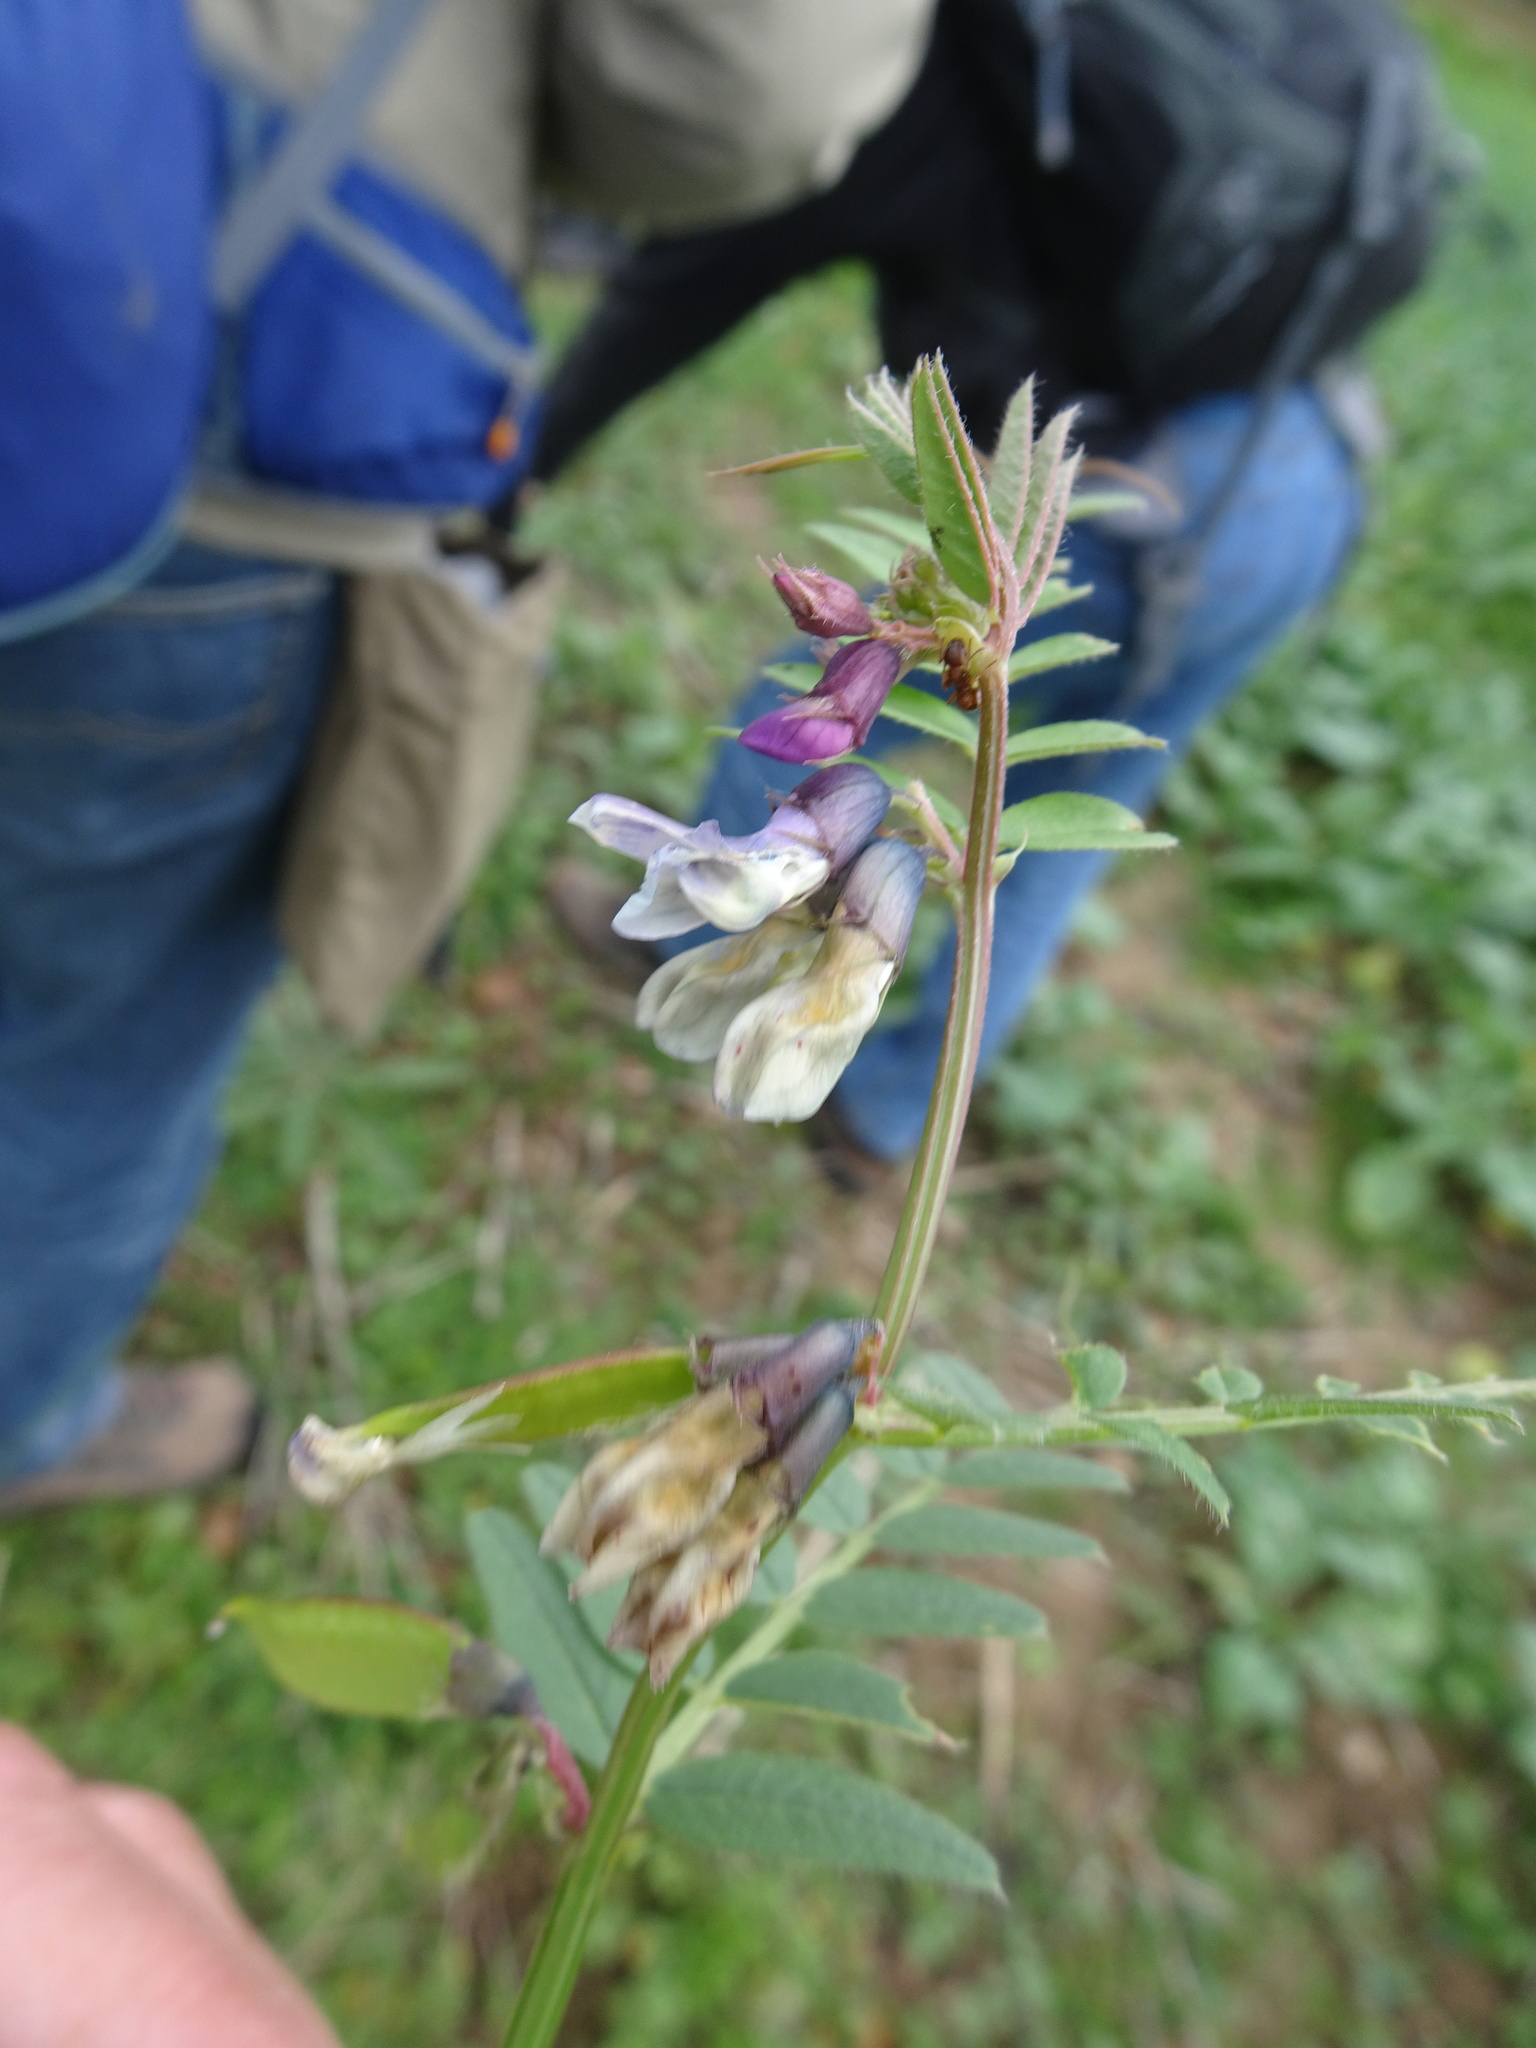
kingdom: Plantae
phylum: Tracheophyta
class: Magnoliopsida
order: Fabales
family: Fabaceae
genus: Vicia
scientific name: Vicia sepium
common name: Bush vetch
